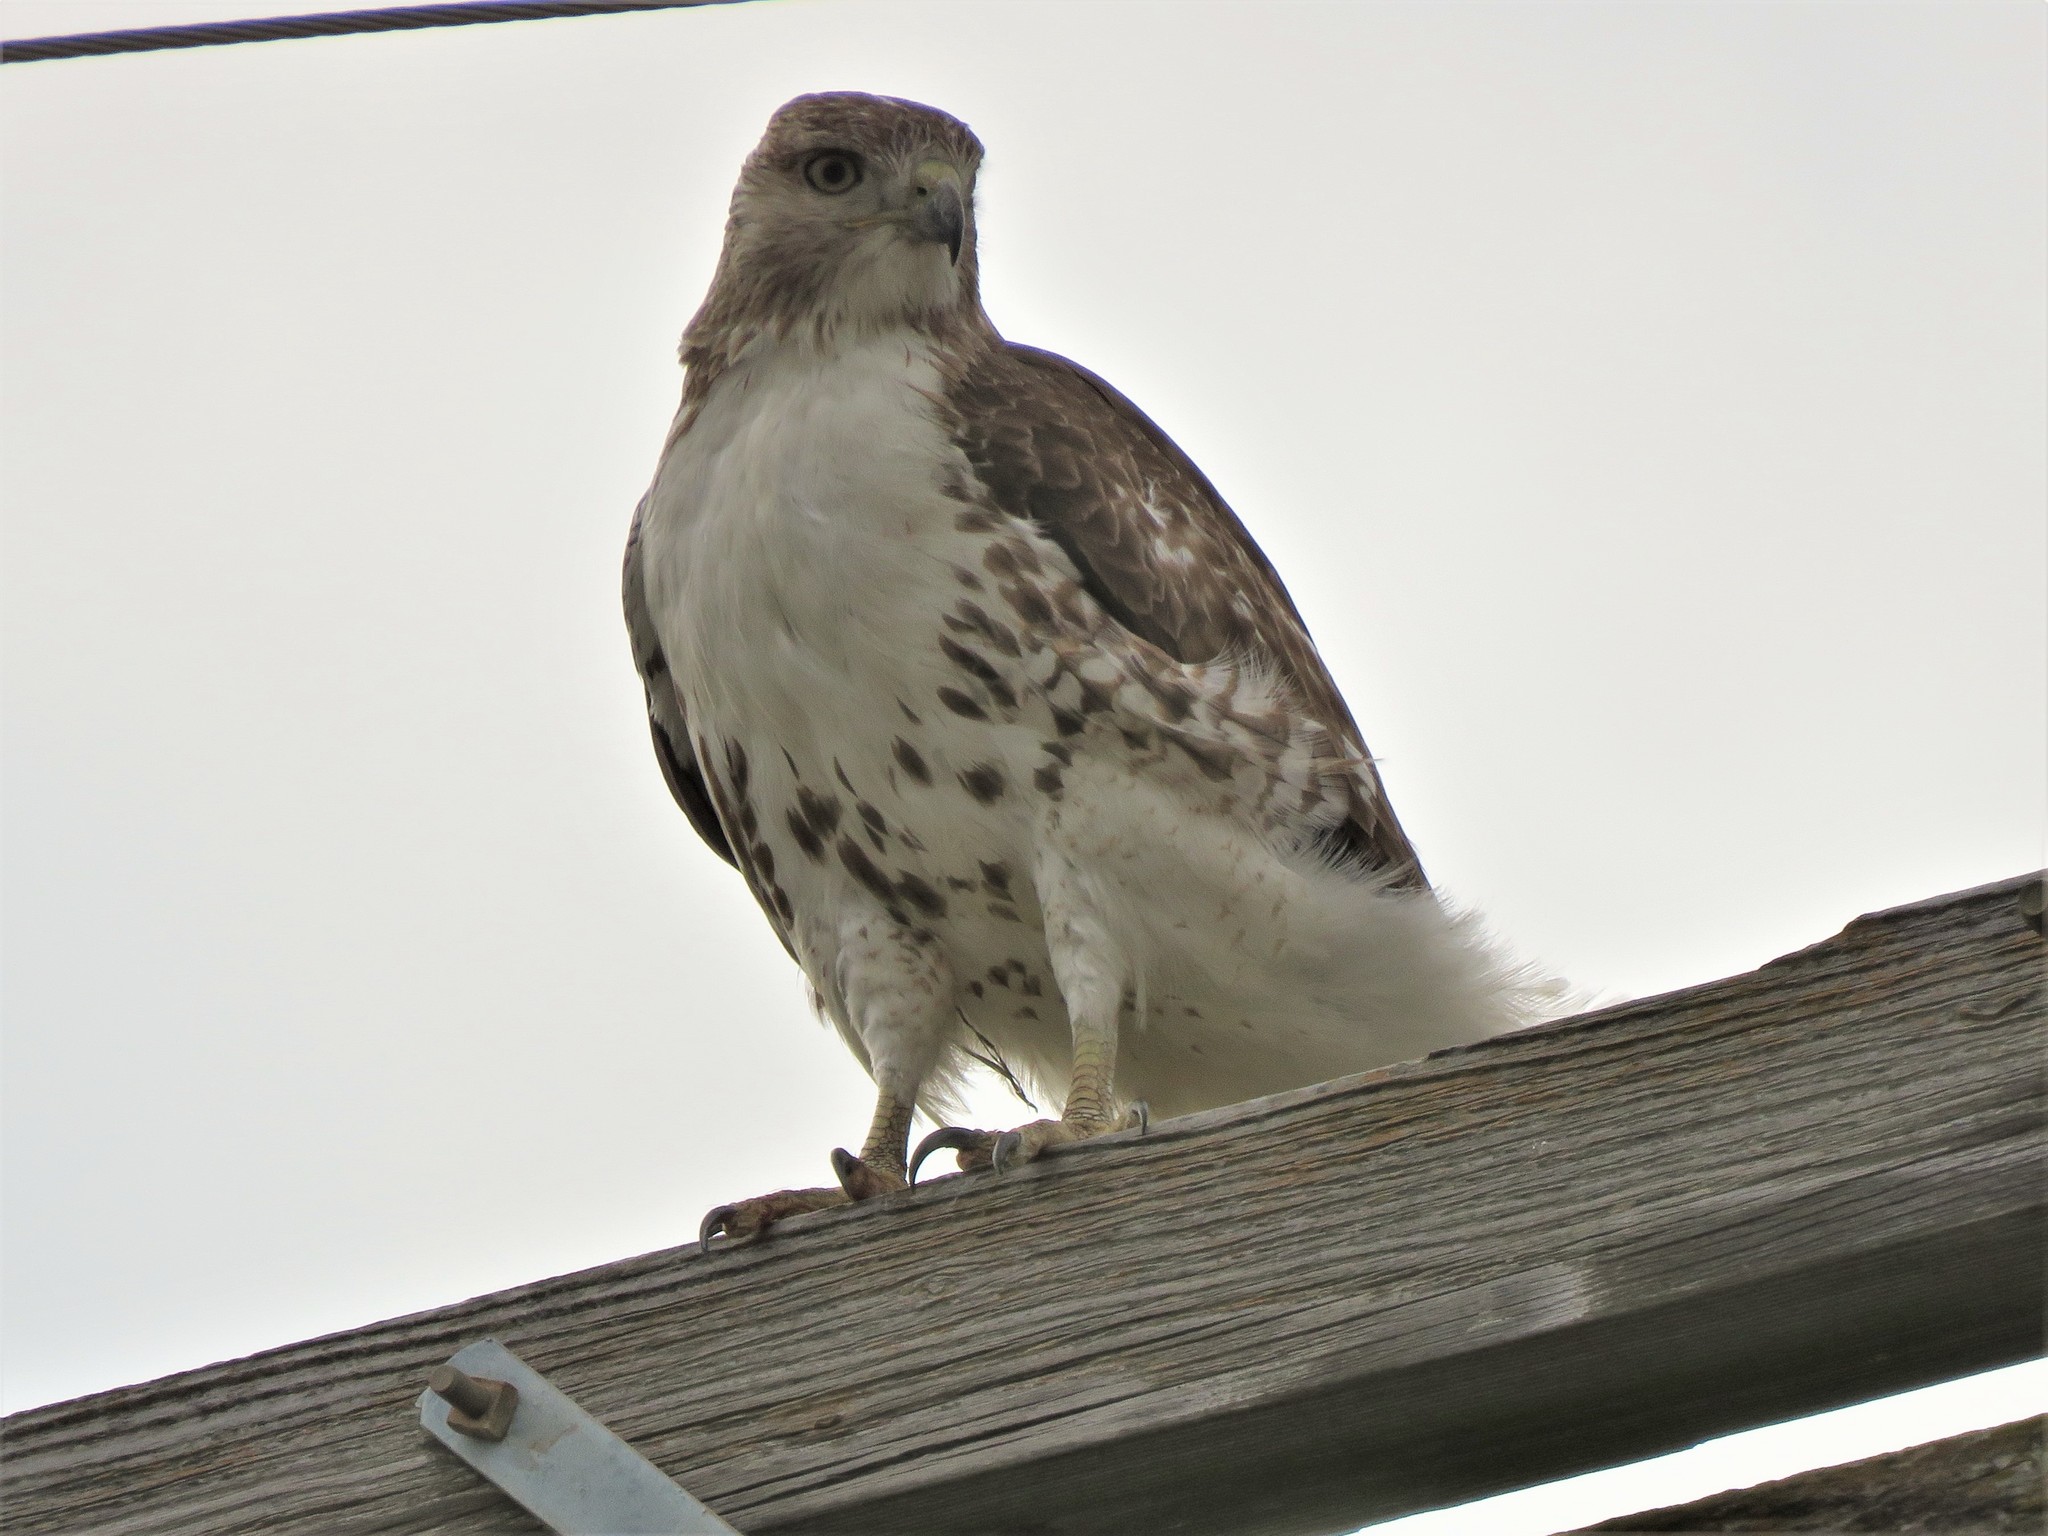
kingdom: Animalia
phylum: Chordata
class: Aves
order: Accipitriformes
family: Accipitridae
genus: Buteo
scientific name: Buteo jamaicensis
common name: Red-tailed hawk
